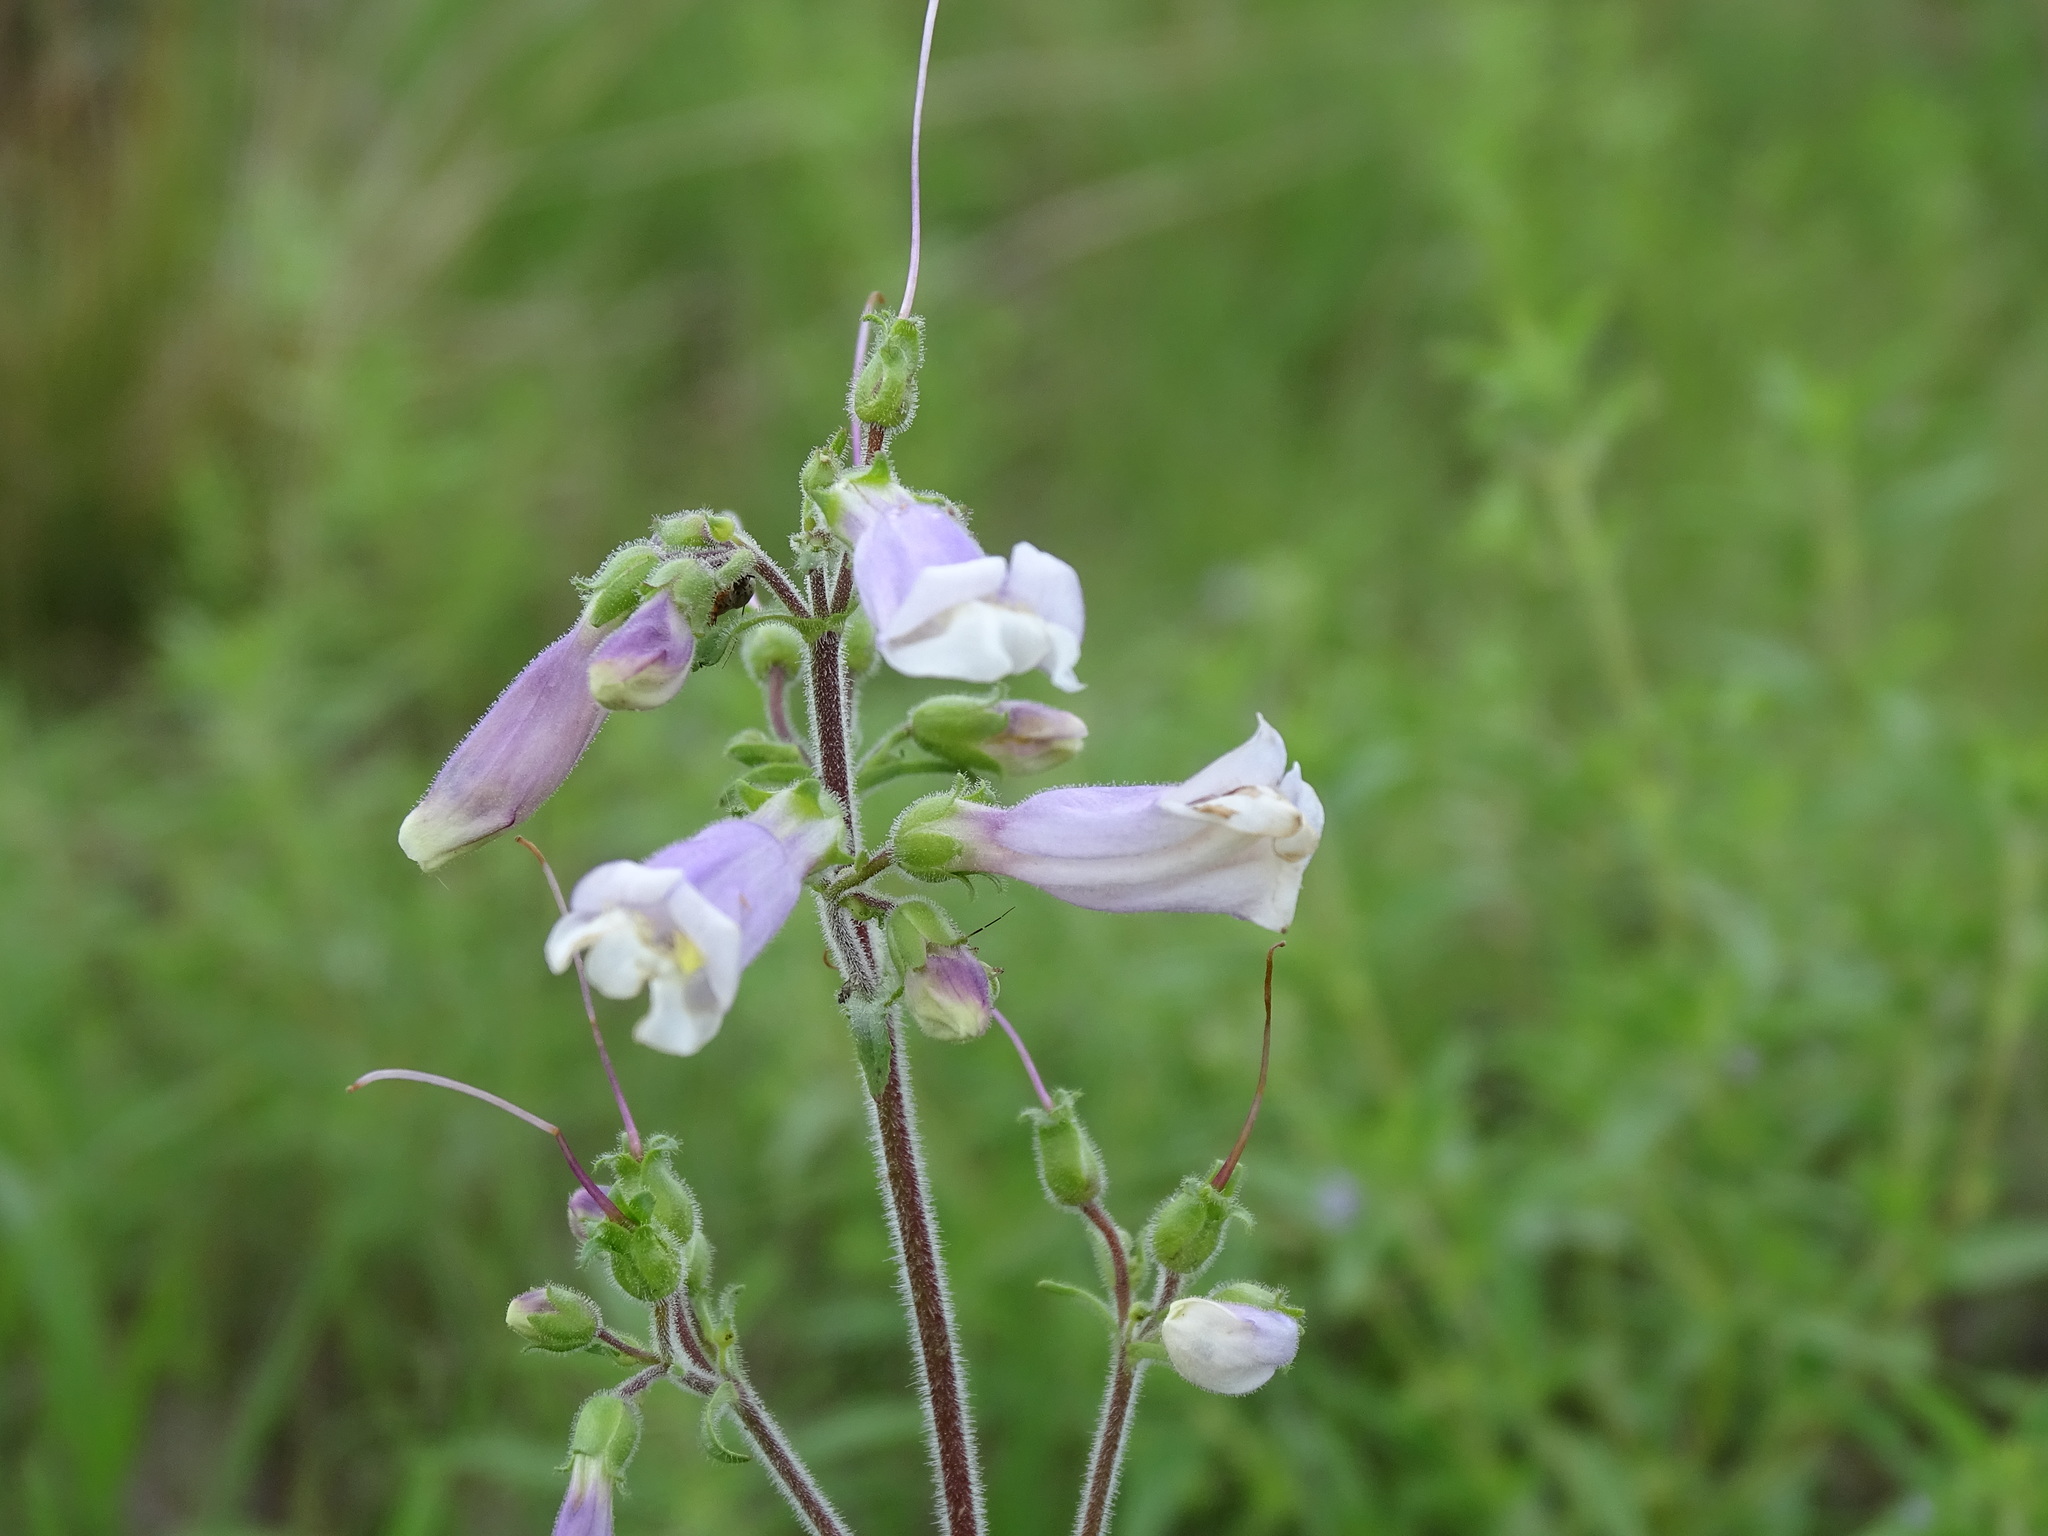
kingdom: Plantae
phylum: Tracheophyta
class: Magnoliopsida
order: Lamiales
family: Plantaginaceae
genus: Penstemon
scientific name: Penstemon hirsutus
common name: Hairy beardtongue
